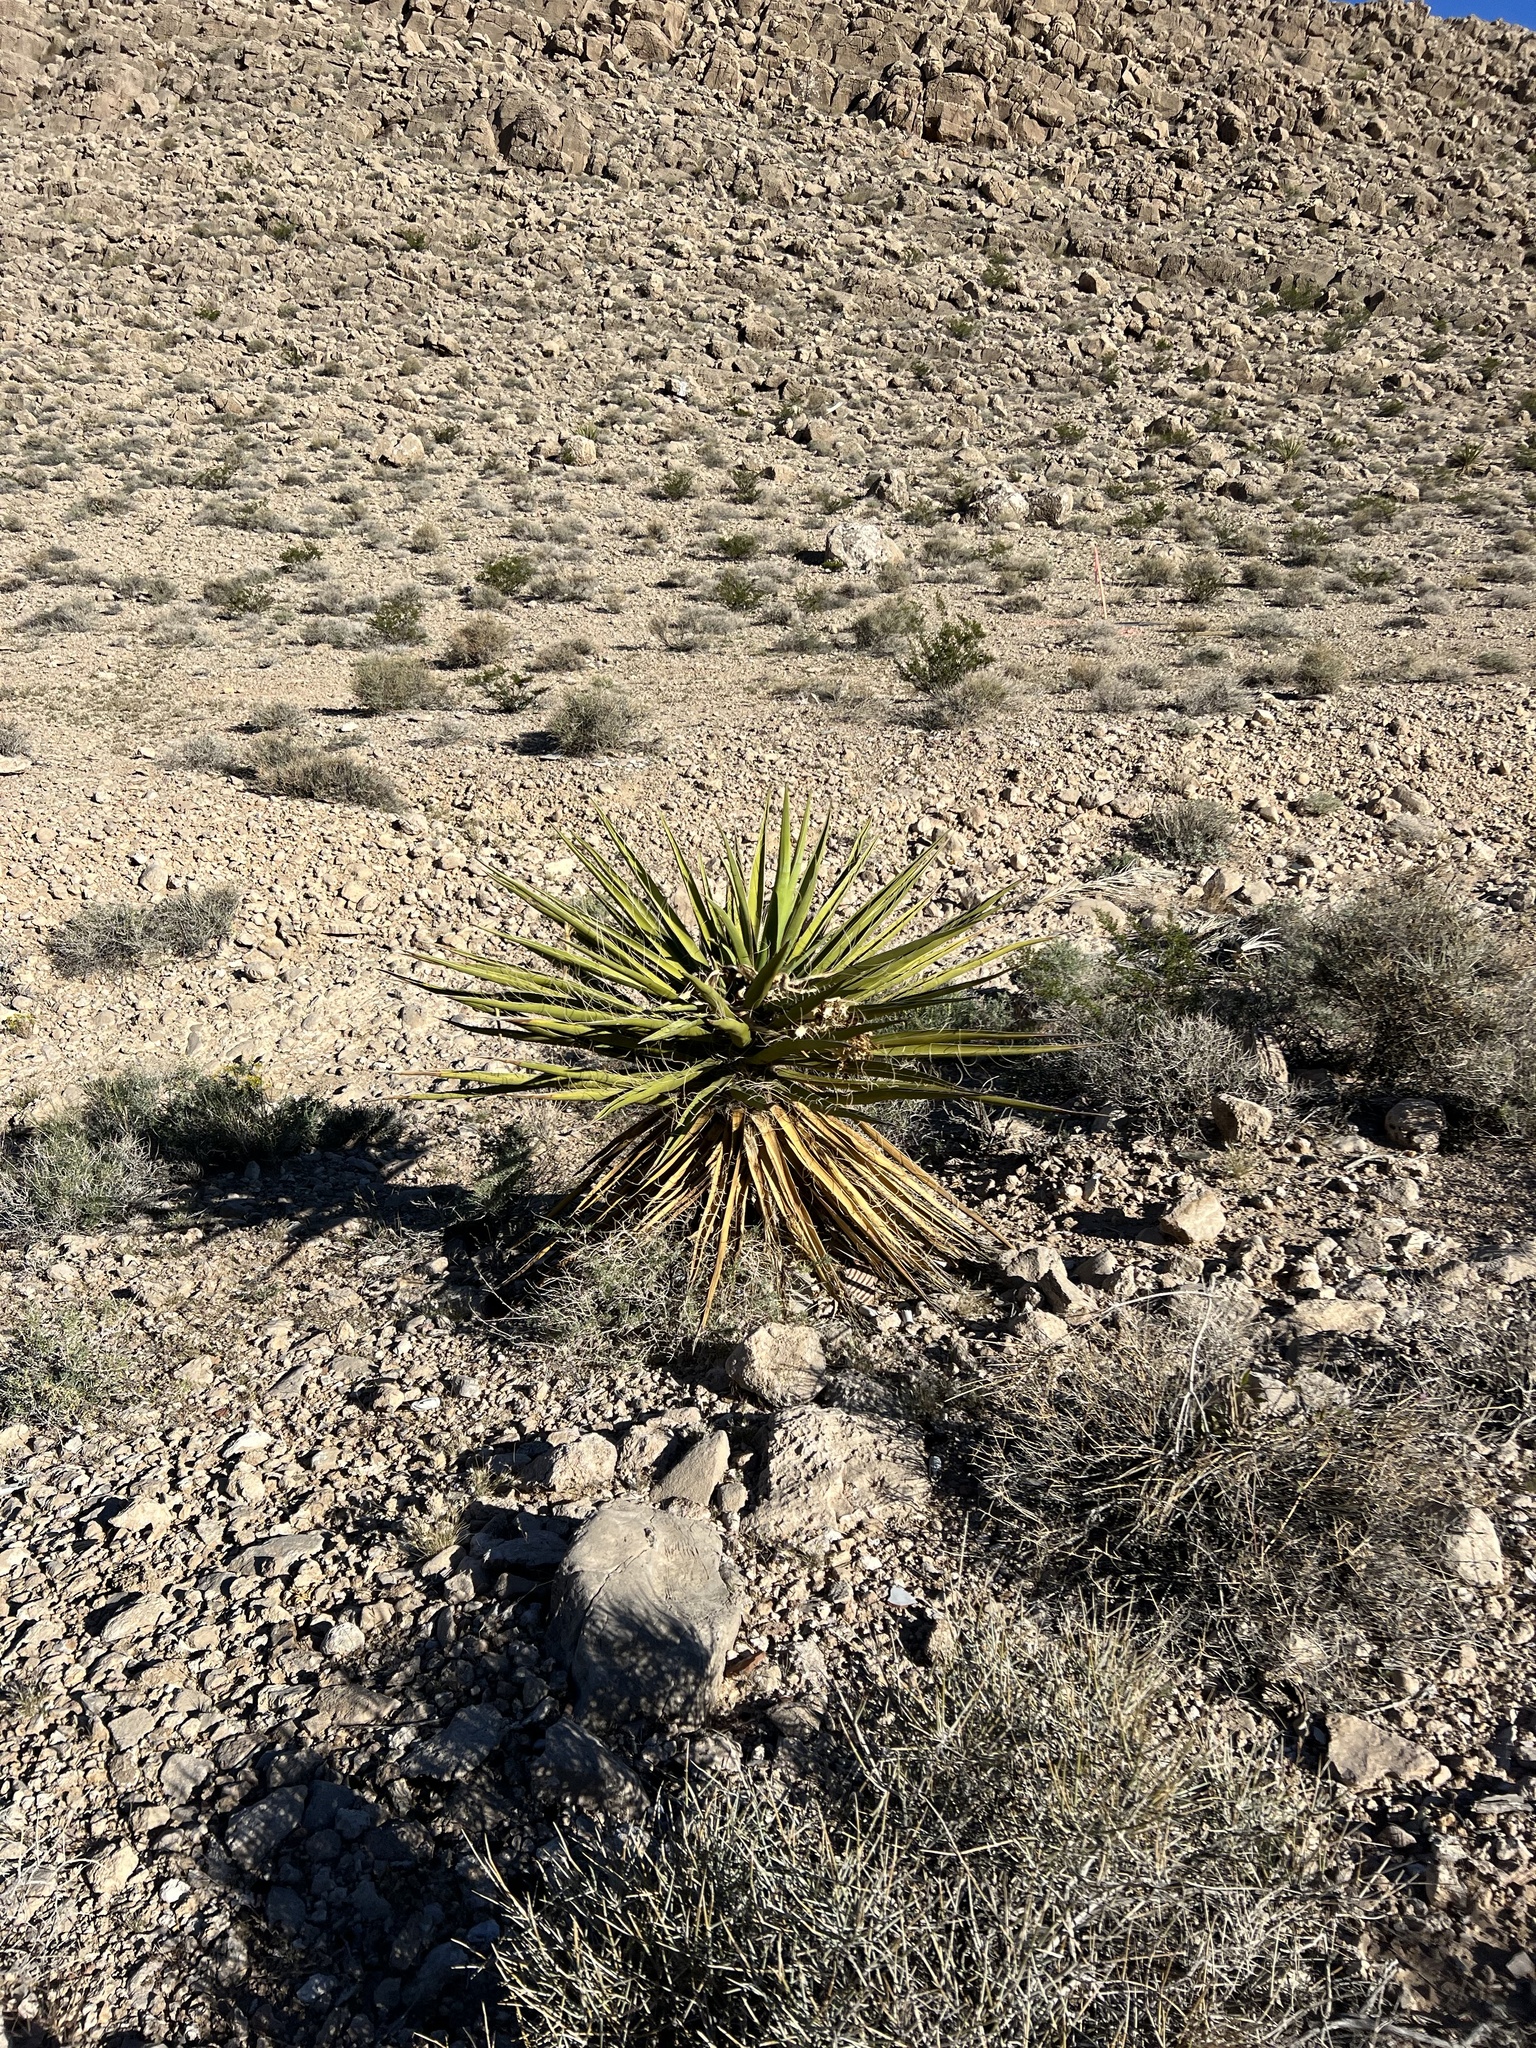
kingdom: Plantae
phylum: Tracheophyta
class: Liliopsida
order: Asparagales
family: Asparagaceae
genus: Yucca
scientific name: Yucca schidigera
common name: Mojave yucca
